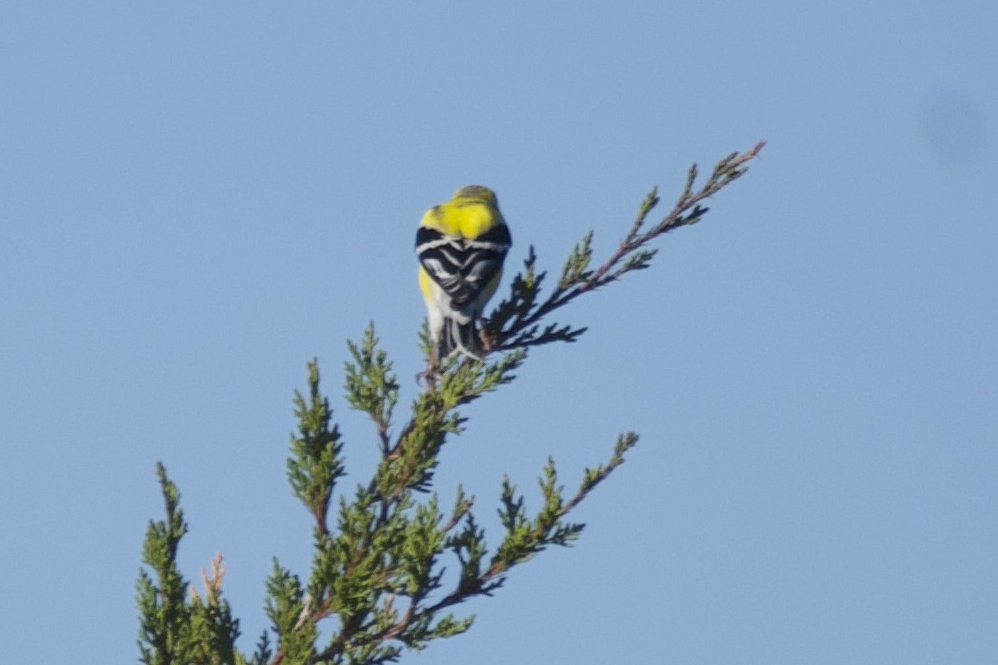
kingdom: Animalia
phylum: Chordata
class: Aves
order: Passeriformes
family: Fringillidae
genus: Spinus
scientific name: Spinus tristis
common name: American goldfinch
